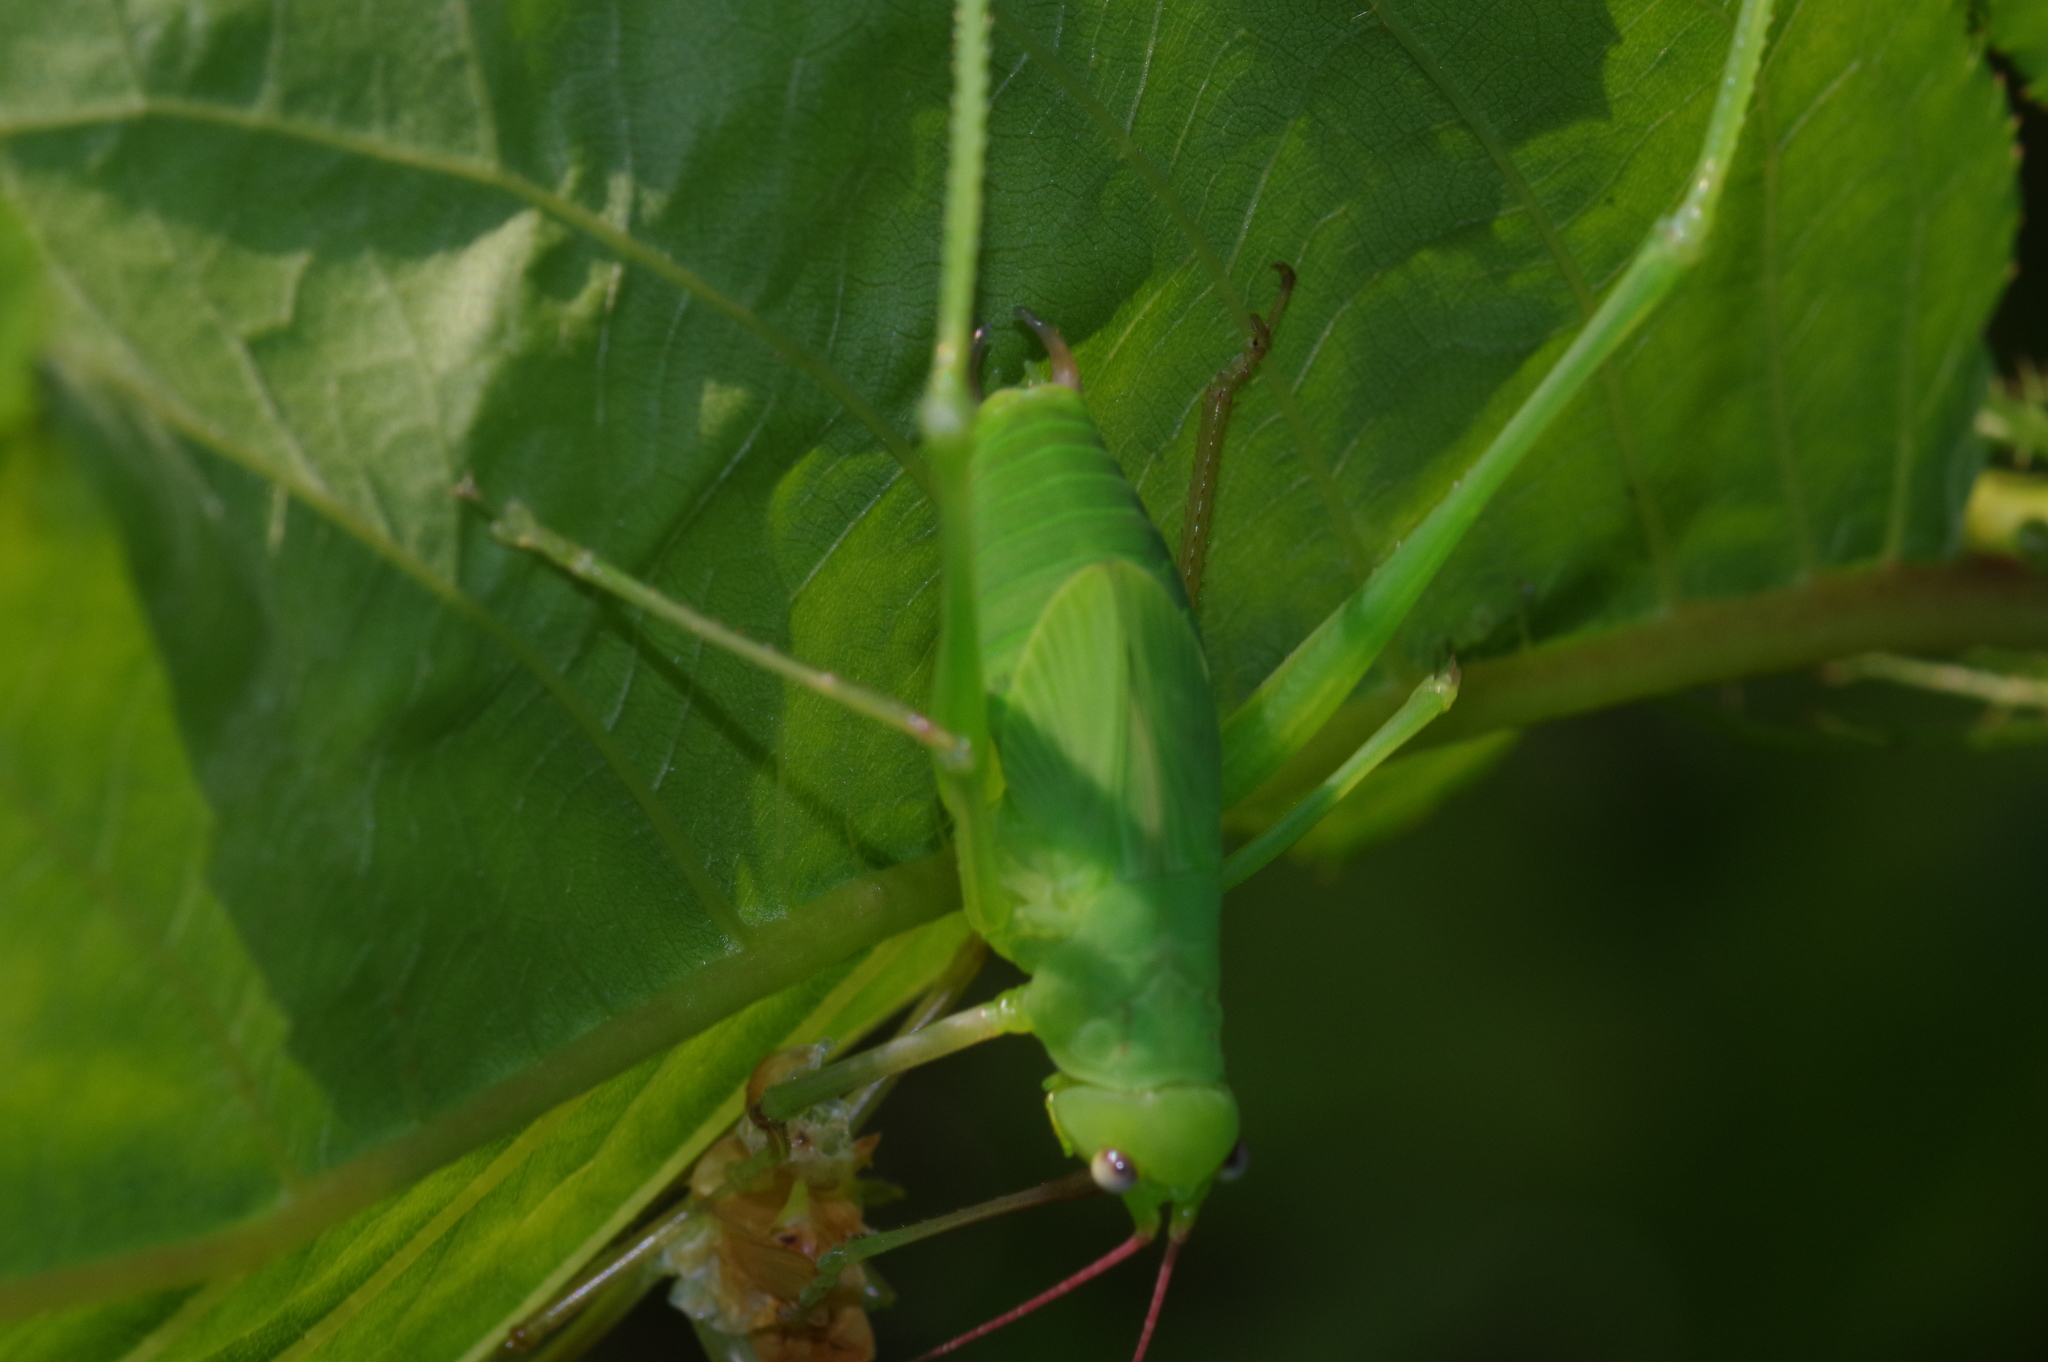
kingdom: Animalia
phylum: Arthropoda
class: Insecta
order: Orthoptera
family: Tettigoniidae
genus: Psyrana
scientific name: Psyrana ryukyuensis
